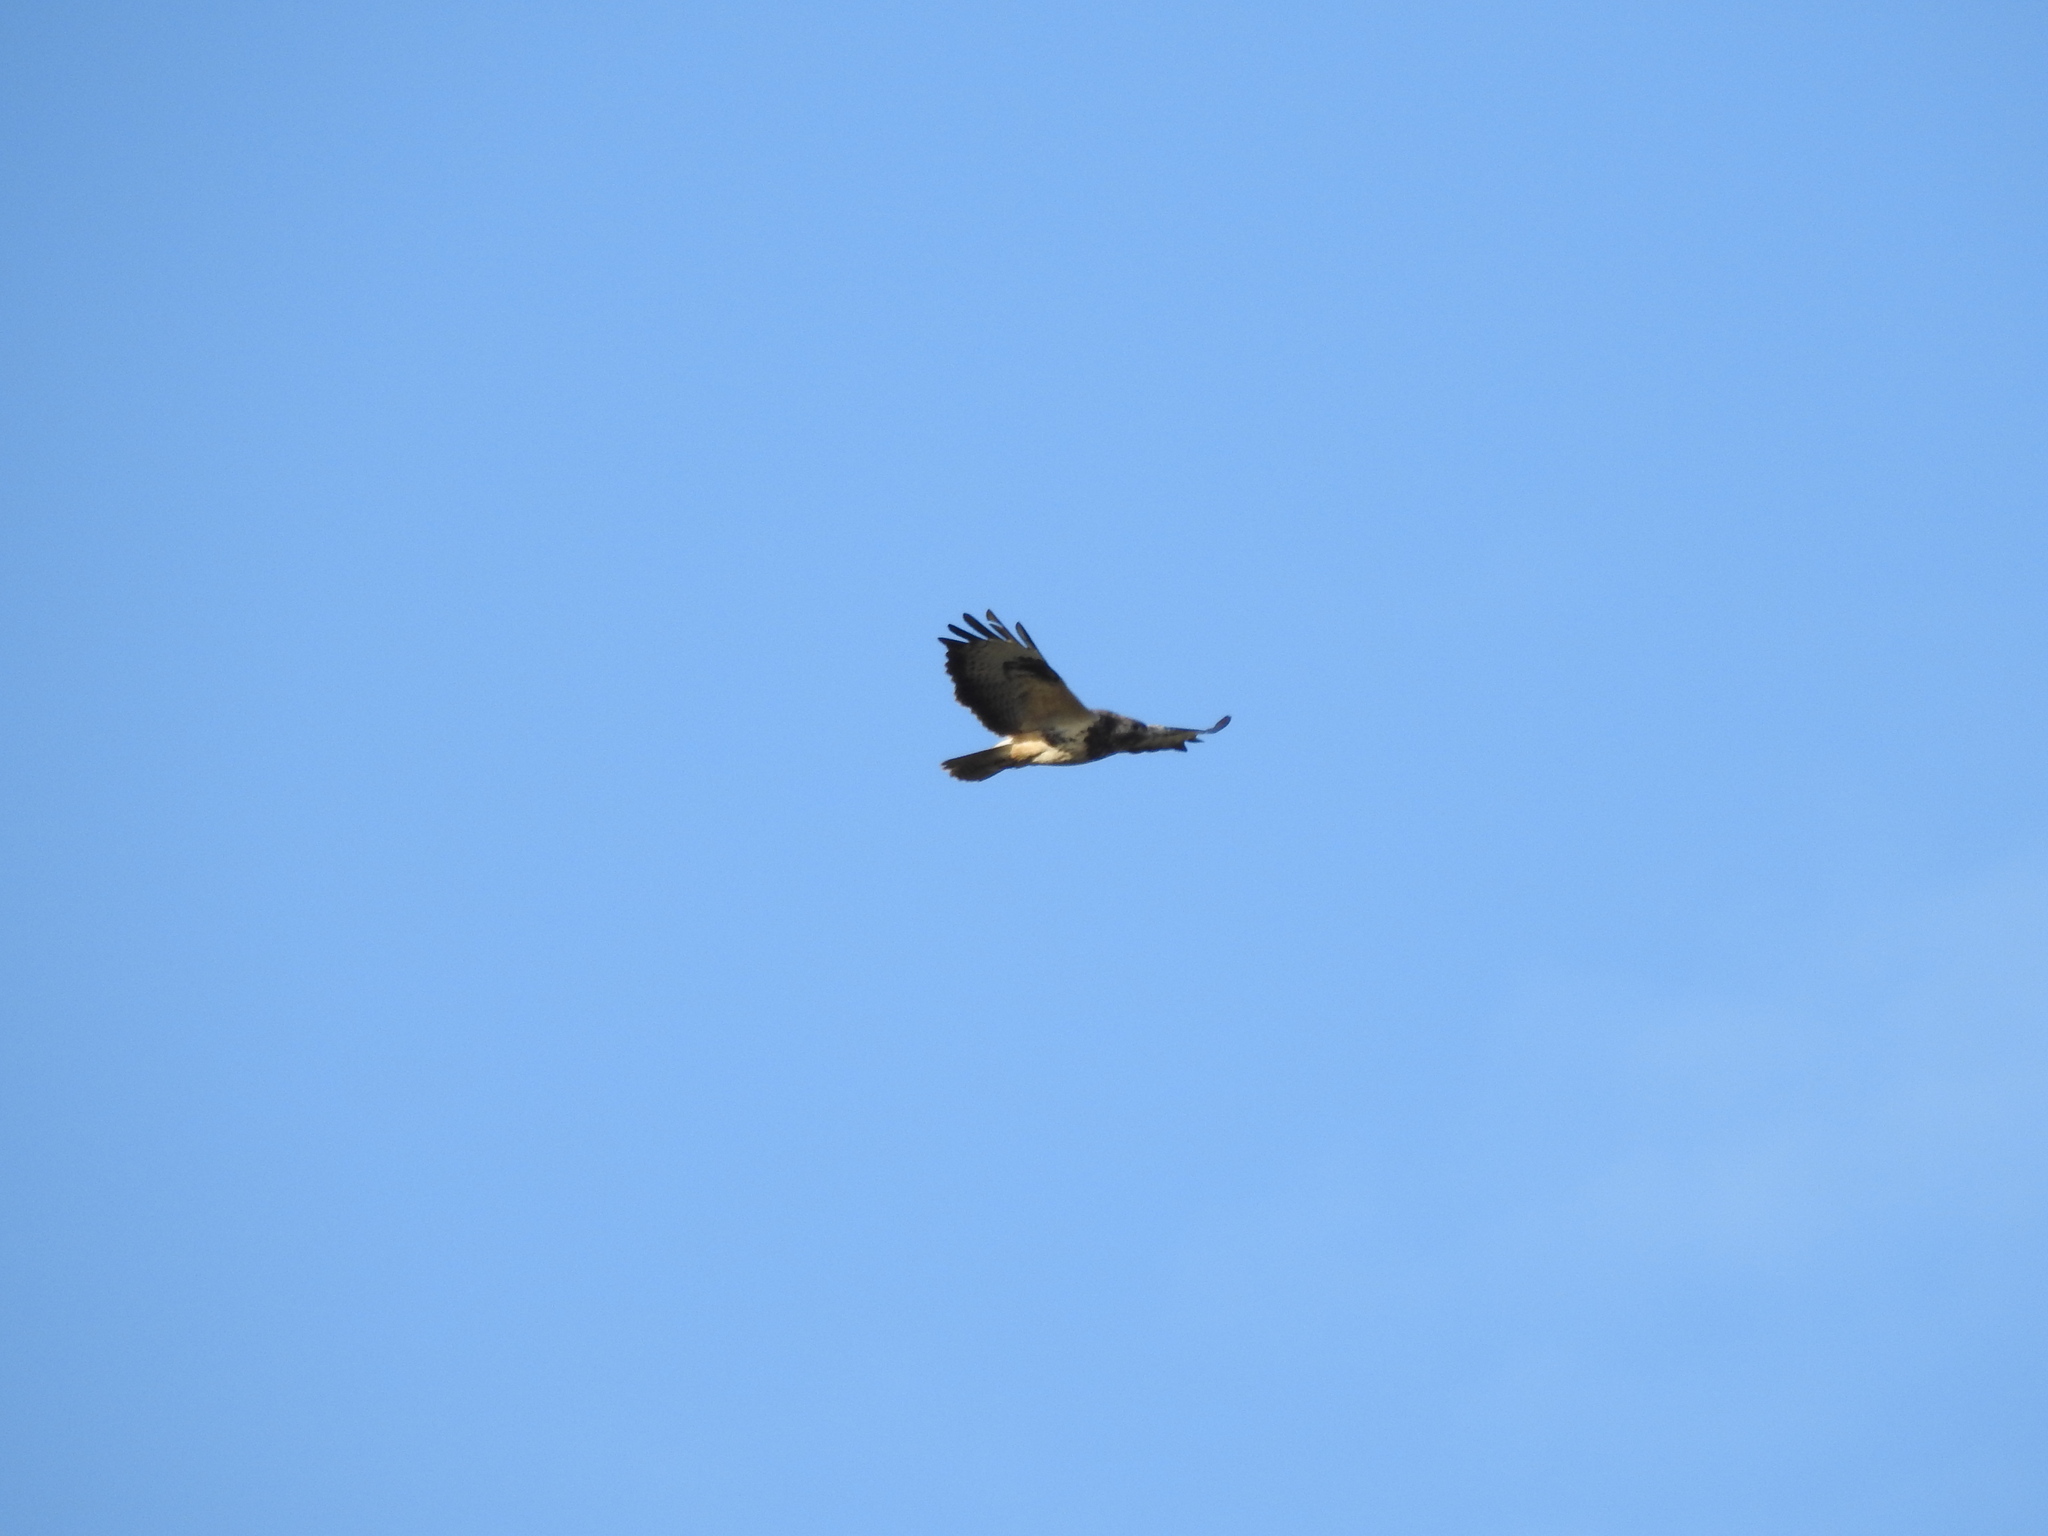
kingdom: Animalia
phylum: Chordata
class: Aves
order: Accipitriformes
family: Accipitridae
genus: Buteo
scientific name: Buteo buteo
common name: Common buzzard
